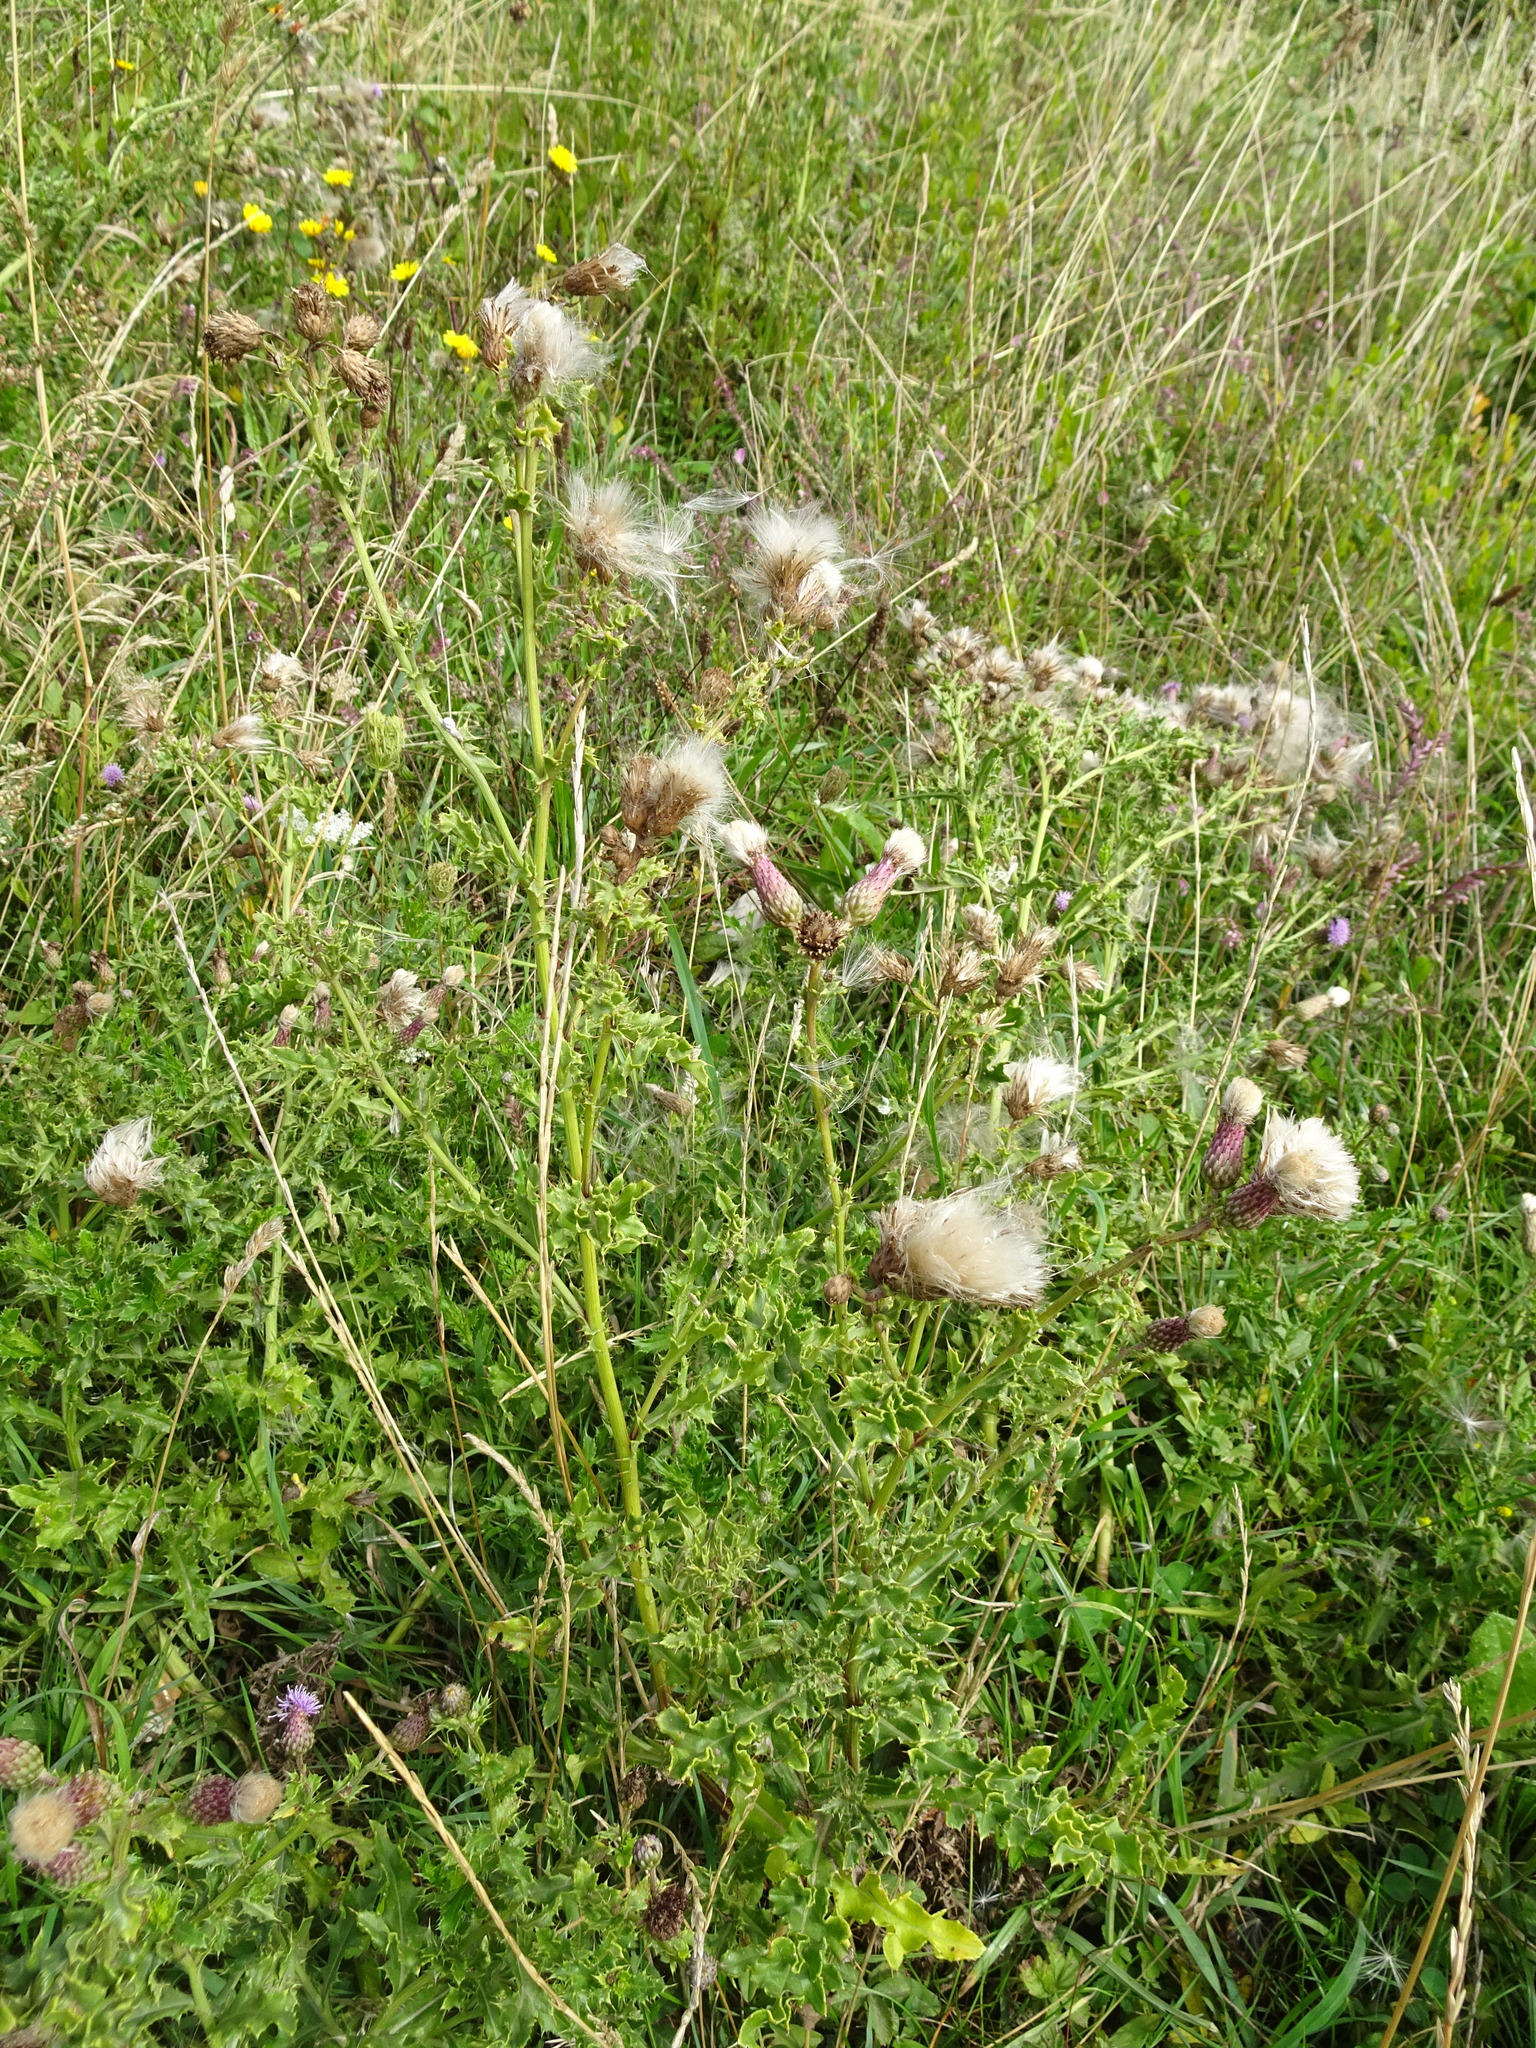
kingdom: Plantae
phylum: Tracheophyta
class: Magnoliopsida
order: Asterales
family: Asteraceae
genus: Cirsium
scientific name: Cirsium arvense
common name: Creeping thistle
